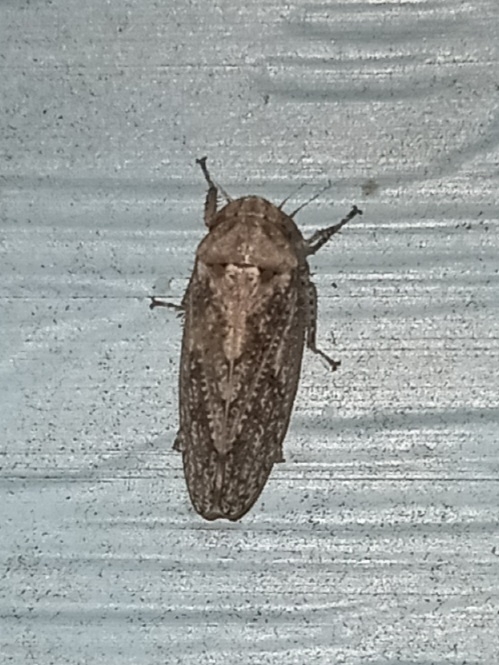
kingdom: Animalia
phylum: Arthropoda
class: Insecta
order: Hemiptera
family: Cicadellidae
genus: Curtara
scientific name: Curtara insularis
